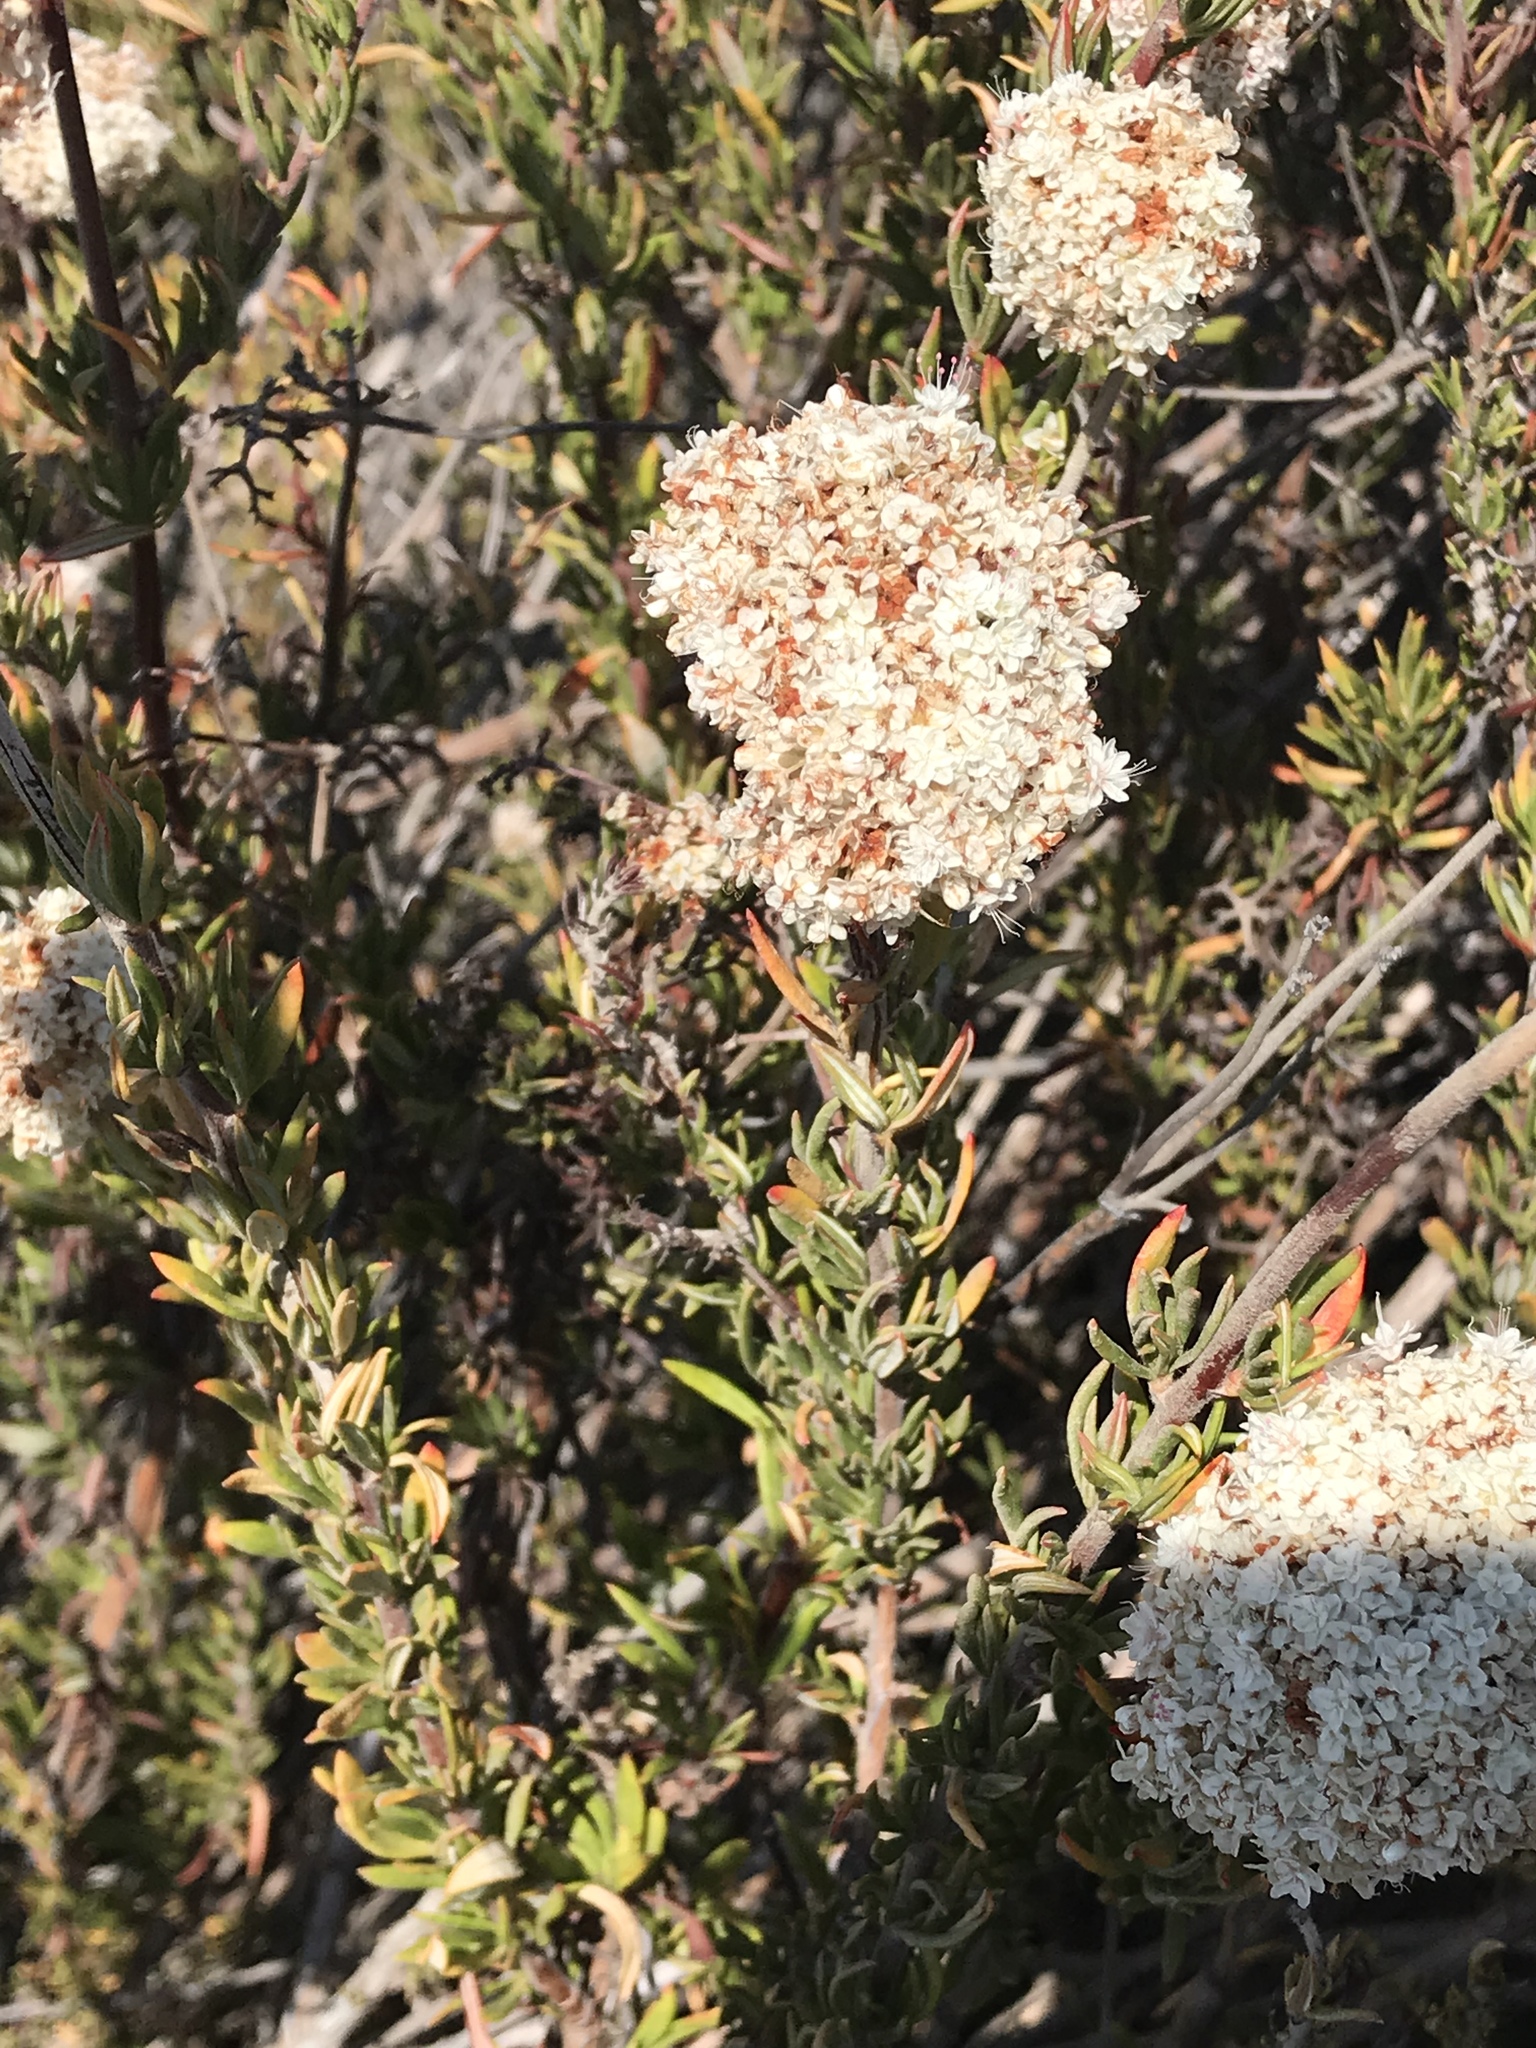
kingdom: Plantae
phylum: Tracheophyta
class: Magnoliopsida
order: Caryophyllales
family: Polygonaceae
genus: Eriogonum
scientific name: Eriogonum fasciculatum
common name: California wild buckwheat
